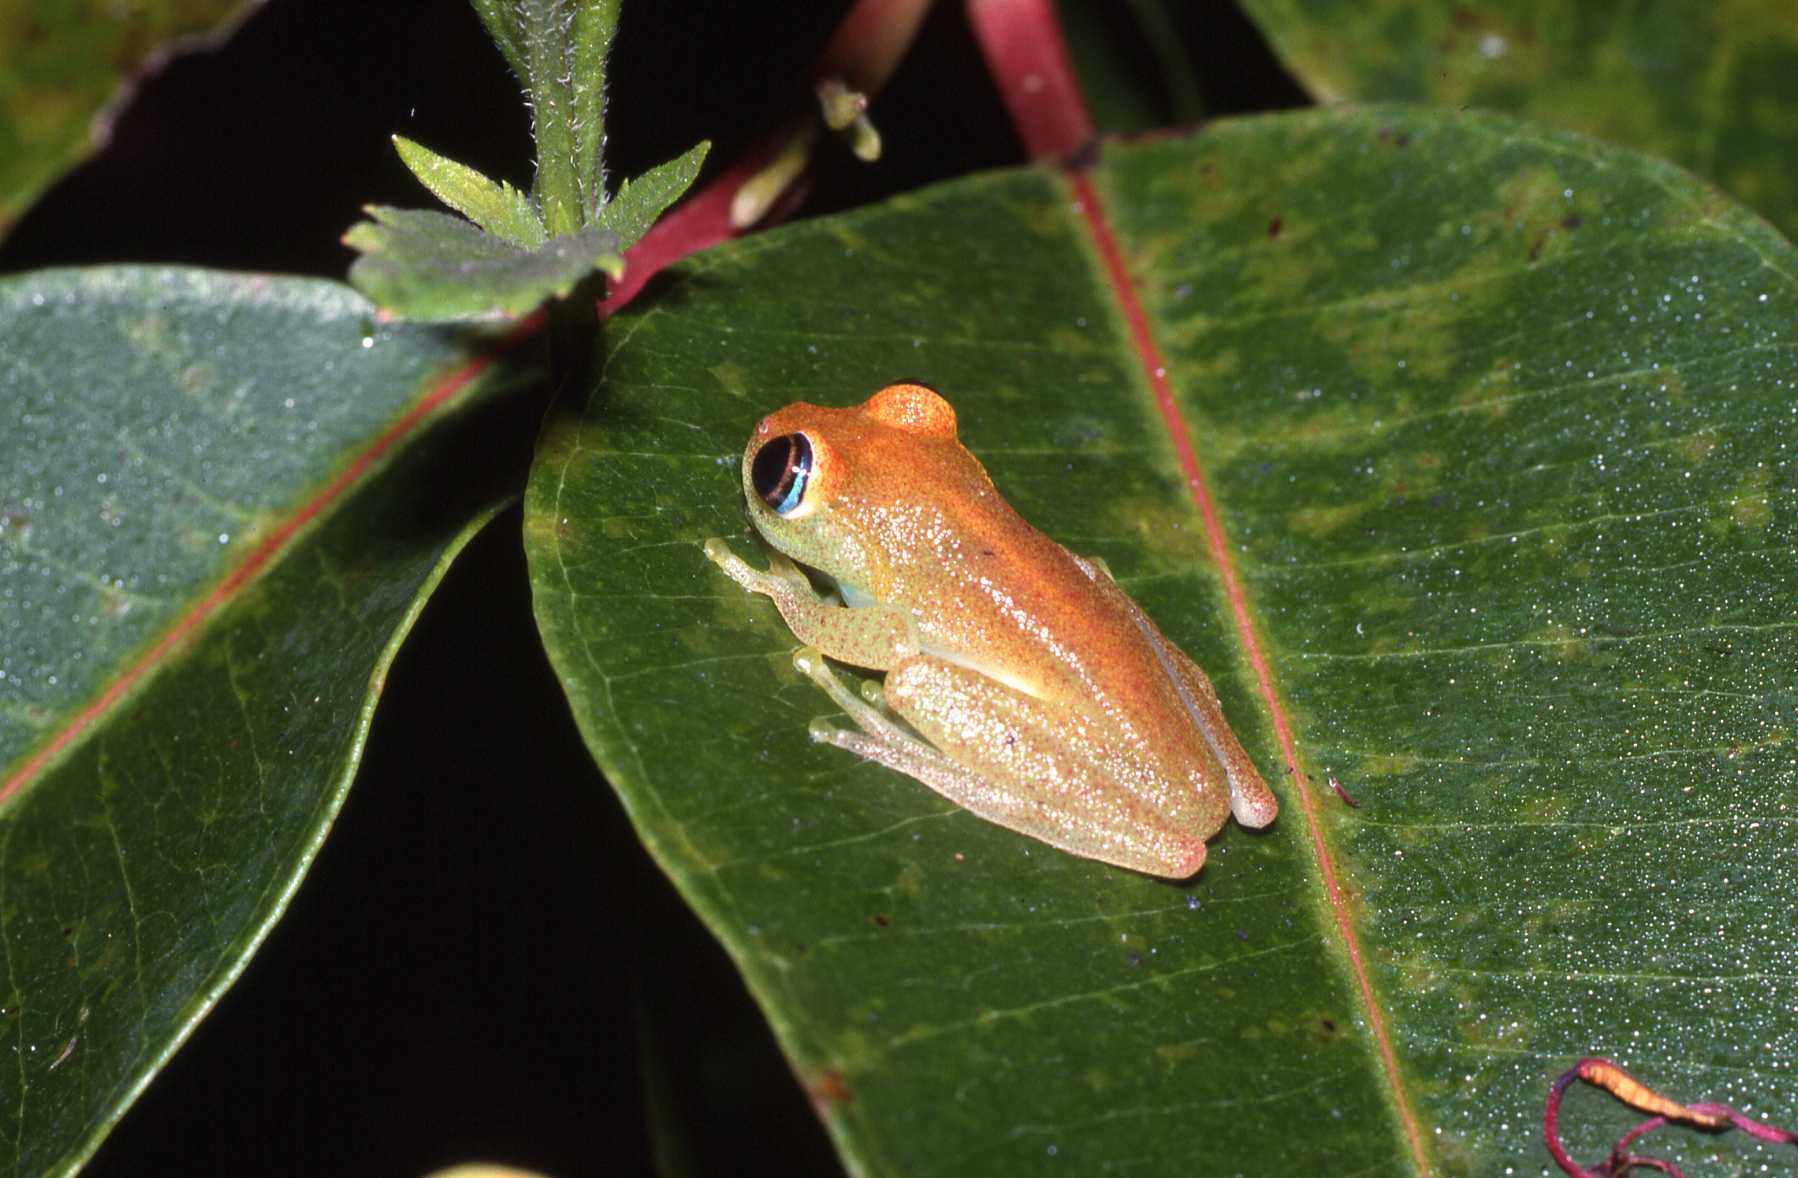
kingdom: Animalia
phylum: Chordata
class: Amphibia
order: Anura
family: Mantellidae
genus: Boophis
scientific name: Boophis viridis
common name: Green bright-eyed frog
